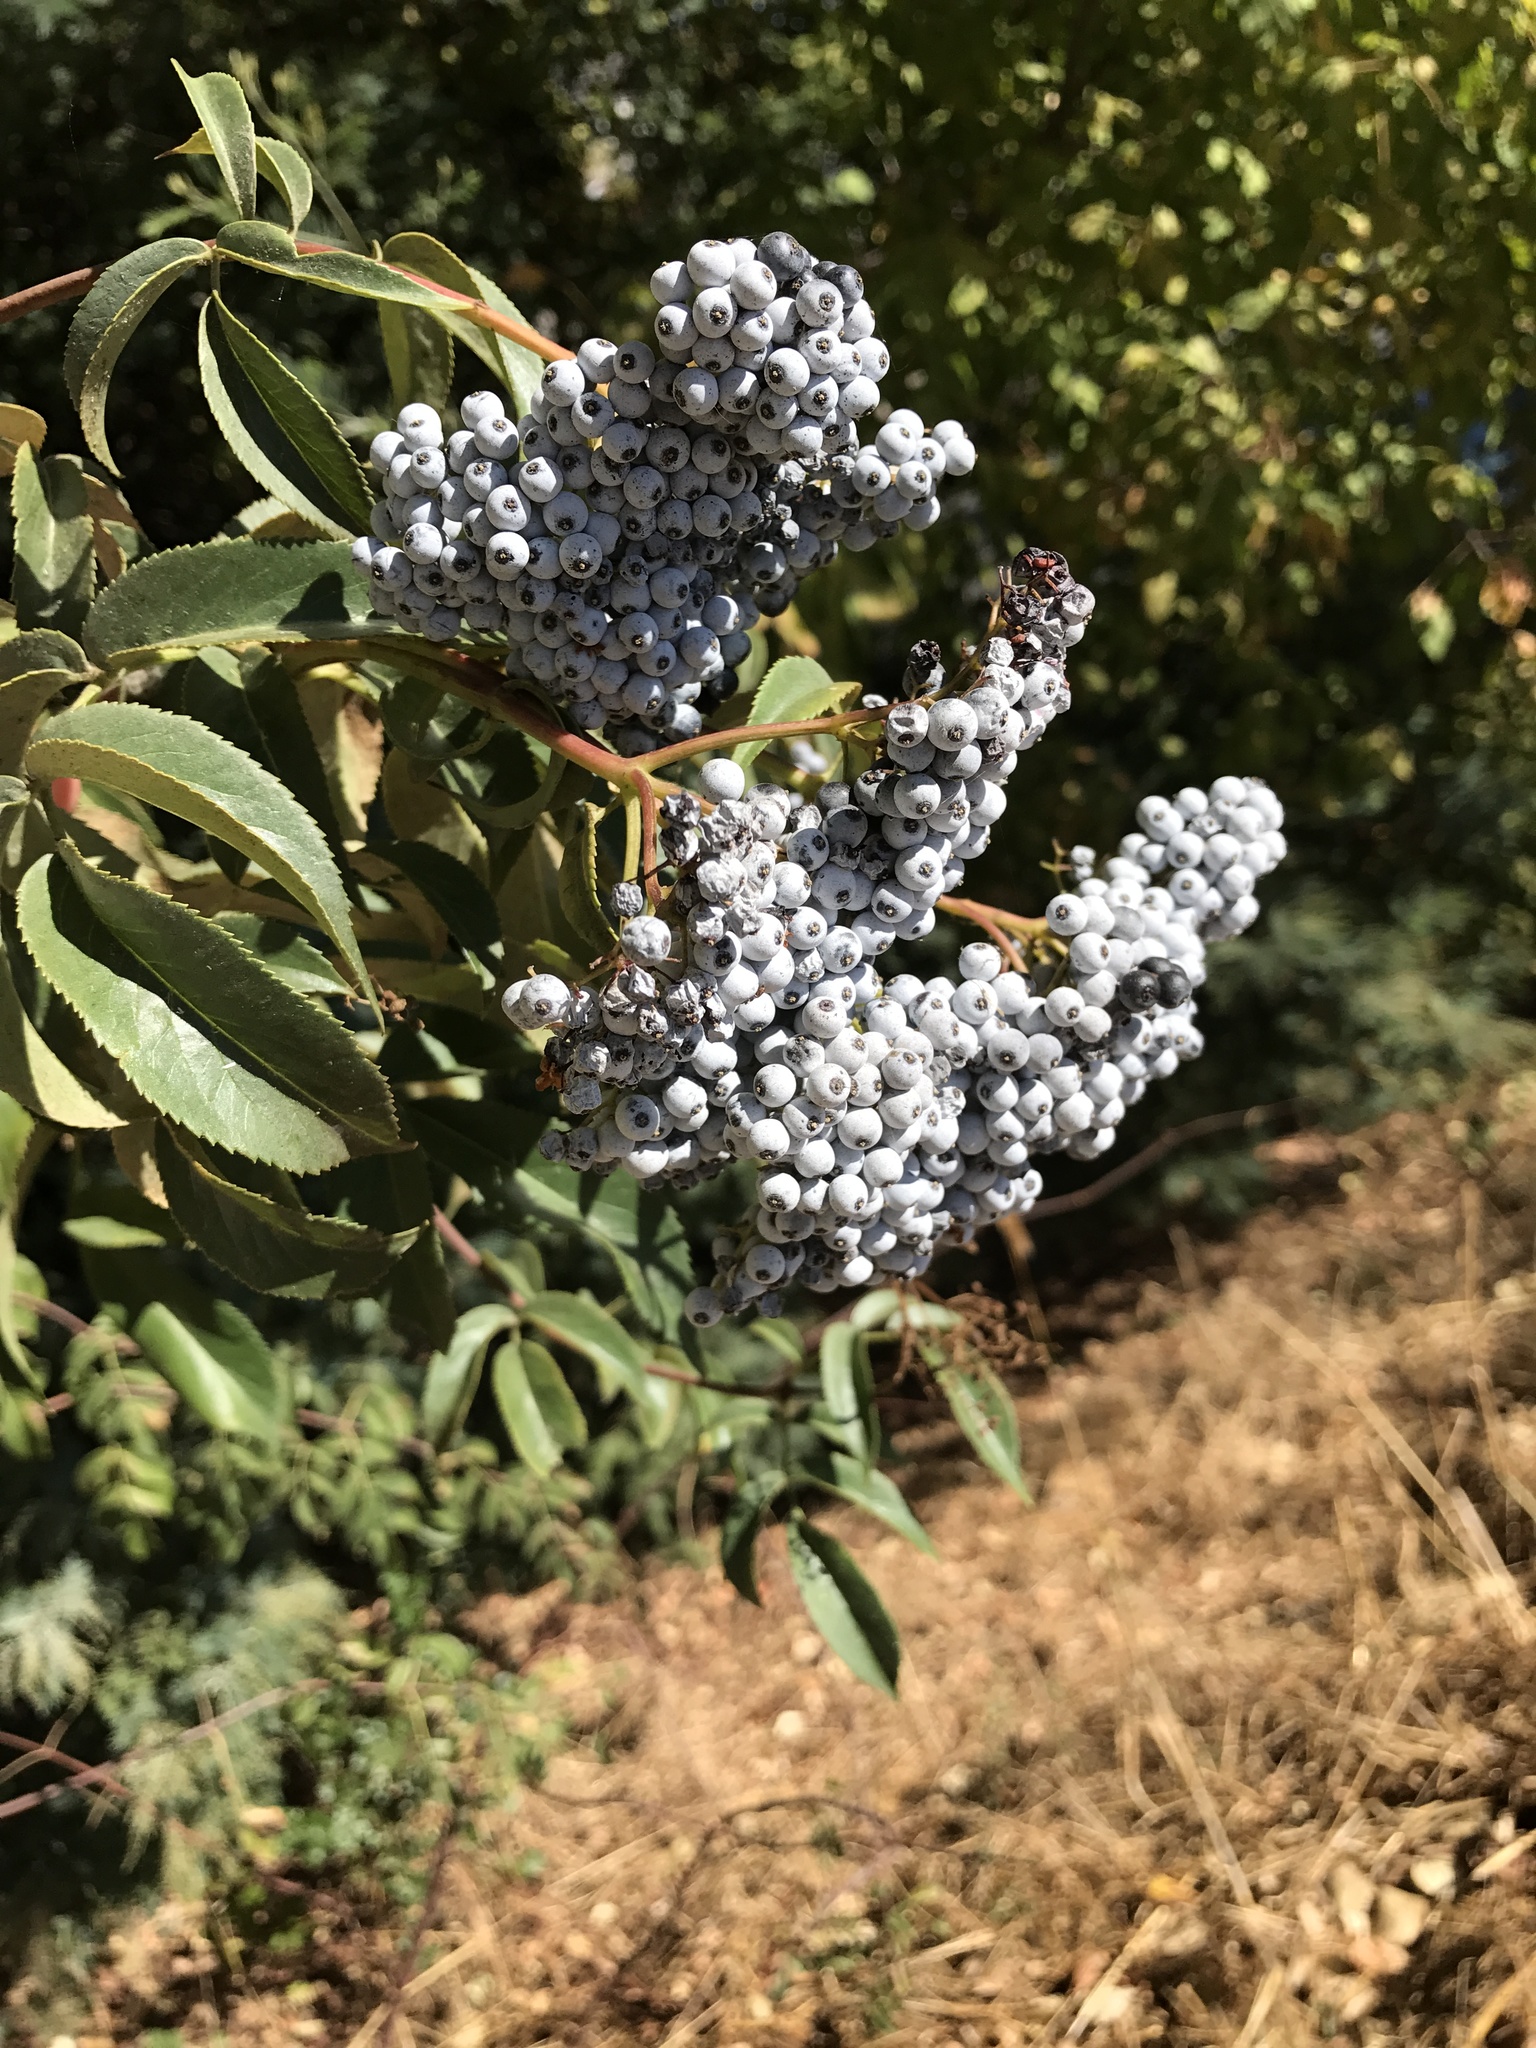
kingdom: Plantae
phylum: Tracheophyta
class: Magnoliopsida
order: Dipsacales
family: Viburnaceae
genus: Sambucus
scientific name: Sambucus cerulea
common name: Blue elder
